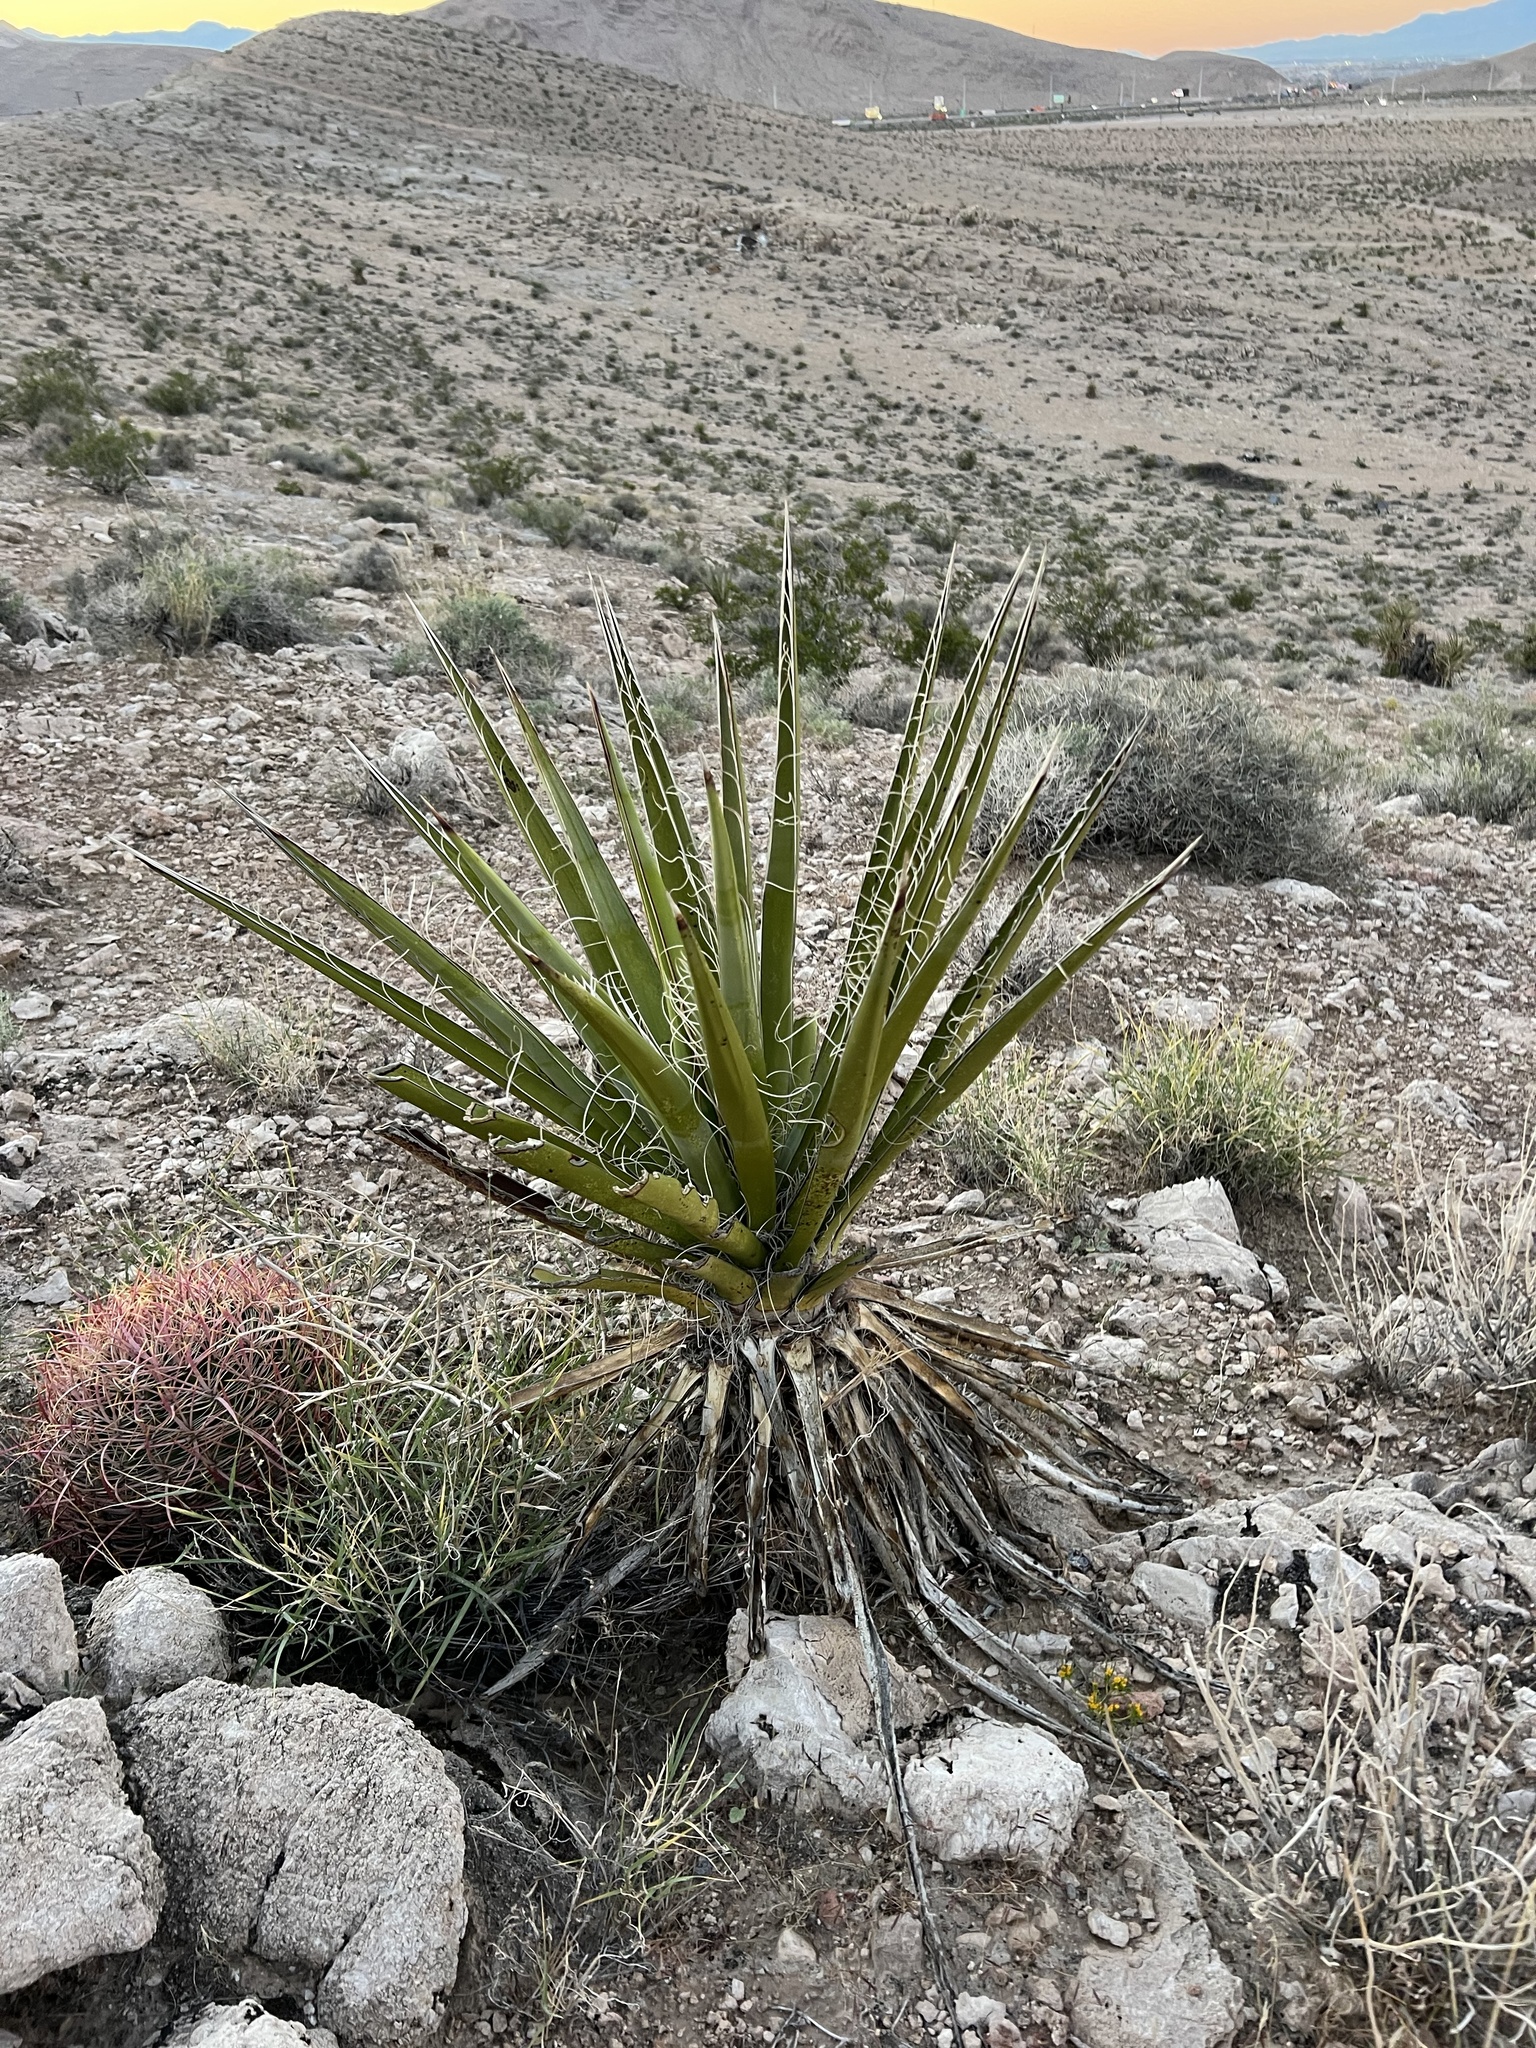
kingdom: Plantae
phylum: Tracheophyta
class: Liliopsida
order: Asparagales
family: Asparagaceae
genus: Yucca
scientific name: Yucca schidigera
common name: Mojave yucca
